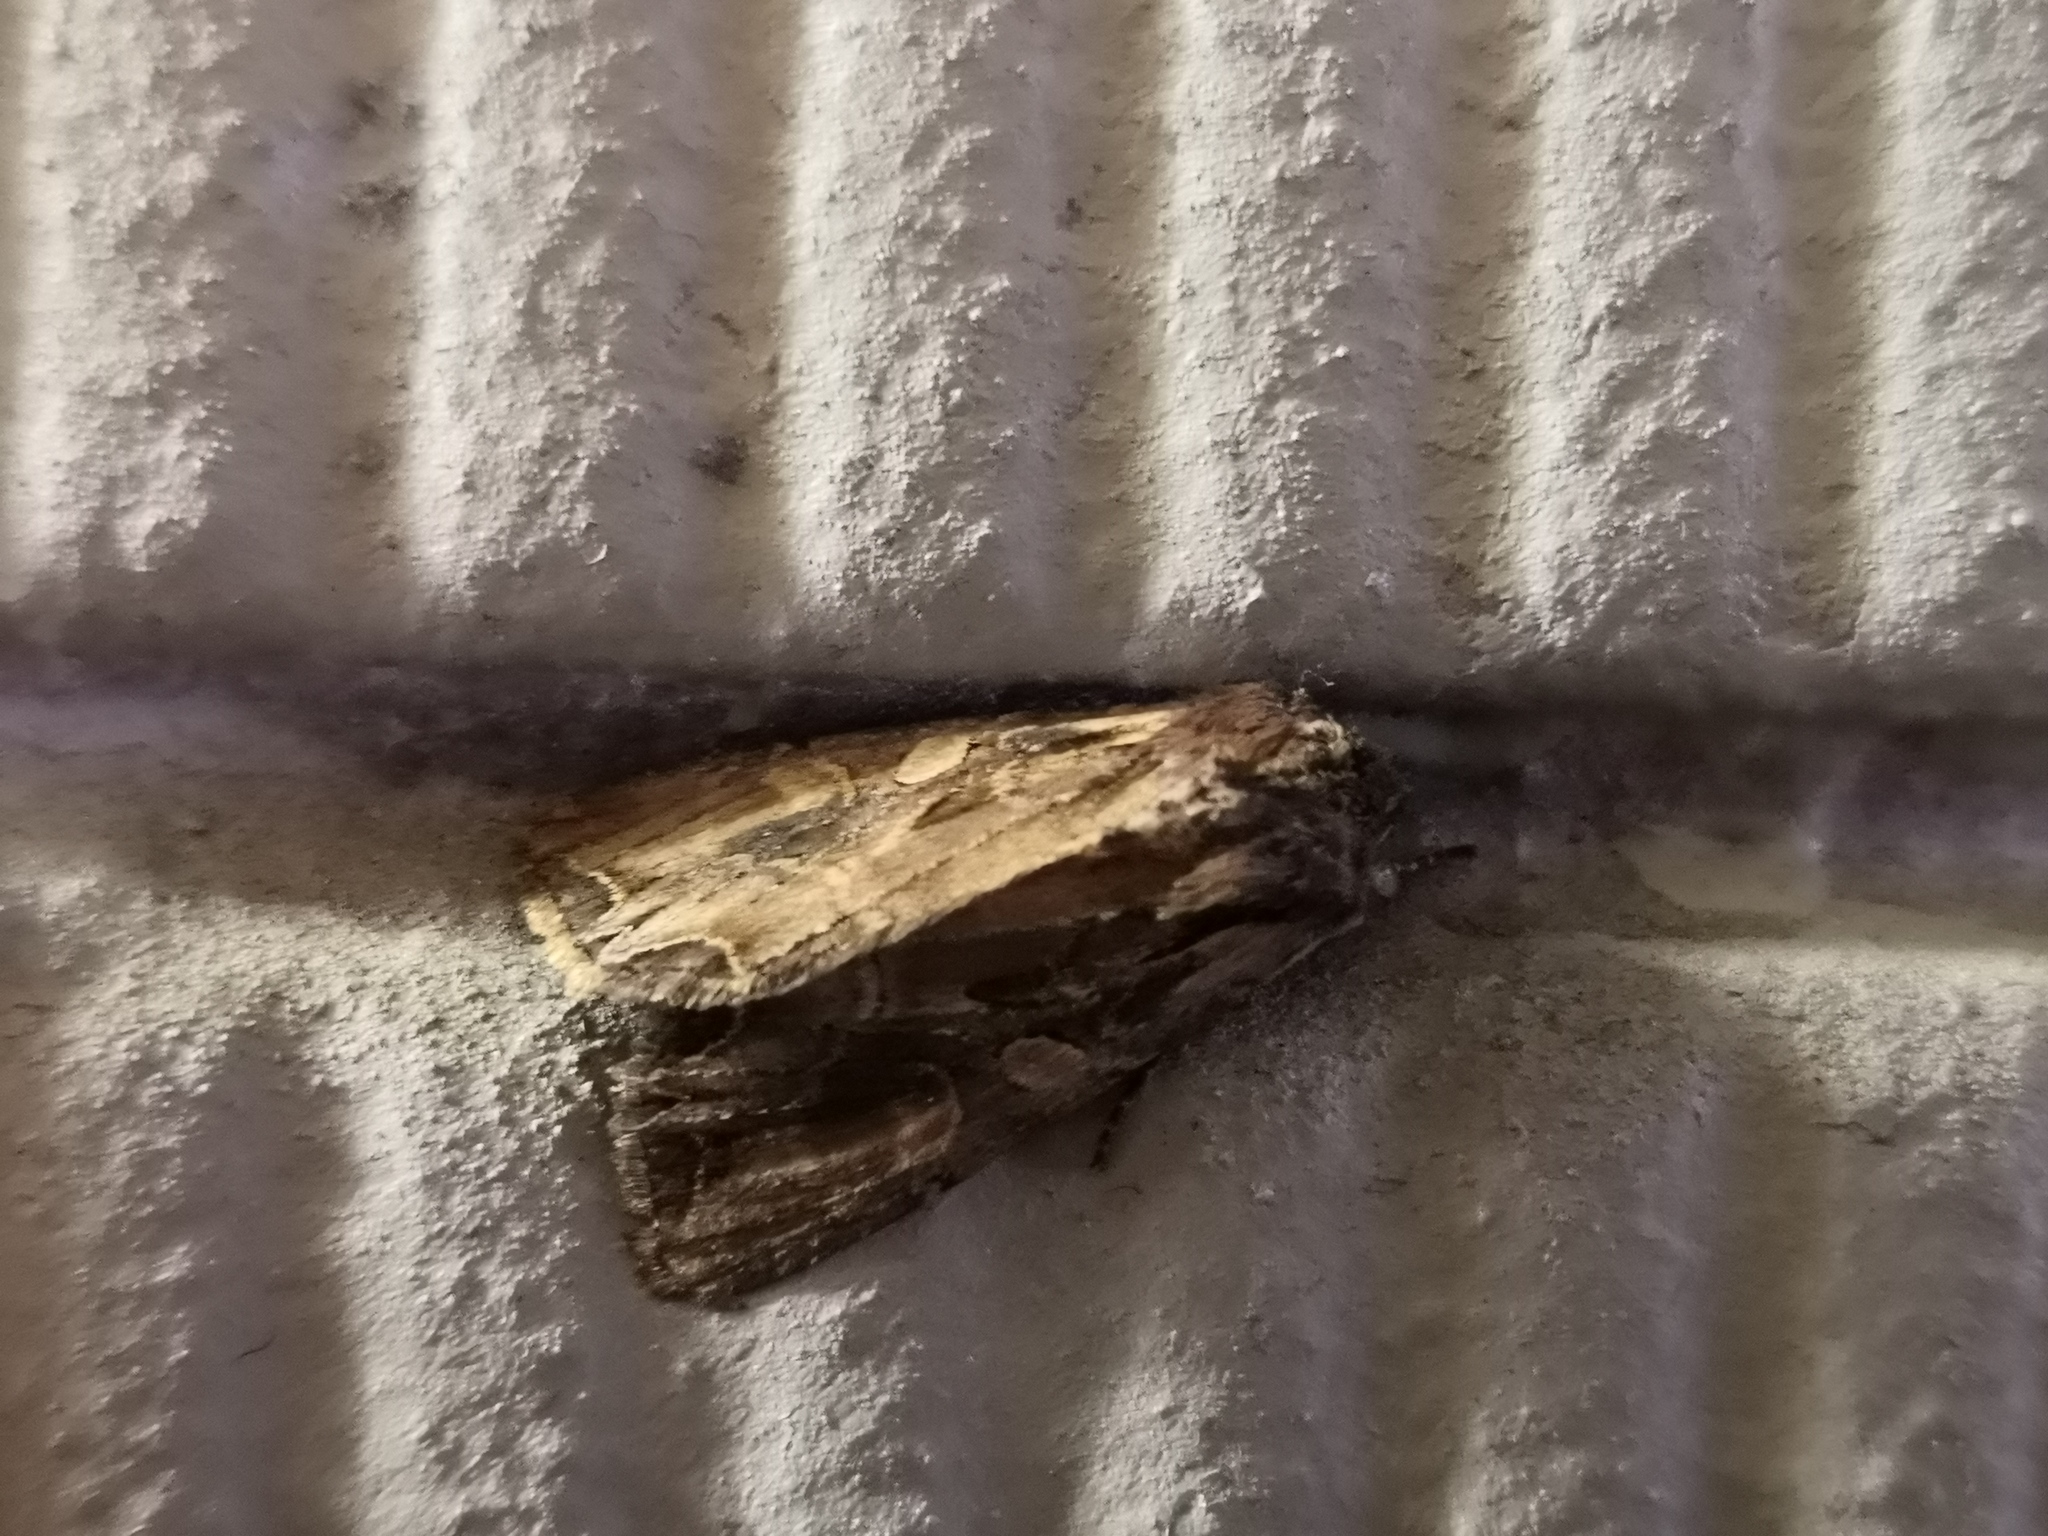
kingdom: Animalia
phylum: Arthropoda
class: Insecta
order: Lepidoptera
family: Noctuidae
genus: Lacanobia
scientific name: Lacanobia suasa
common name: Dog's tooth
